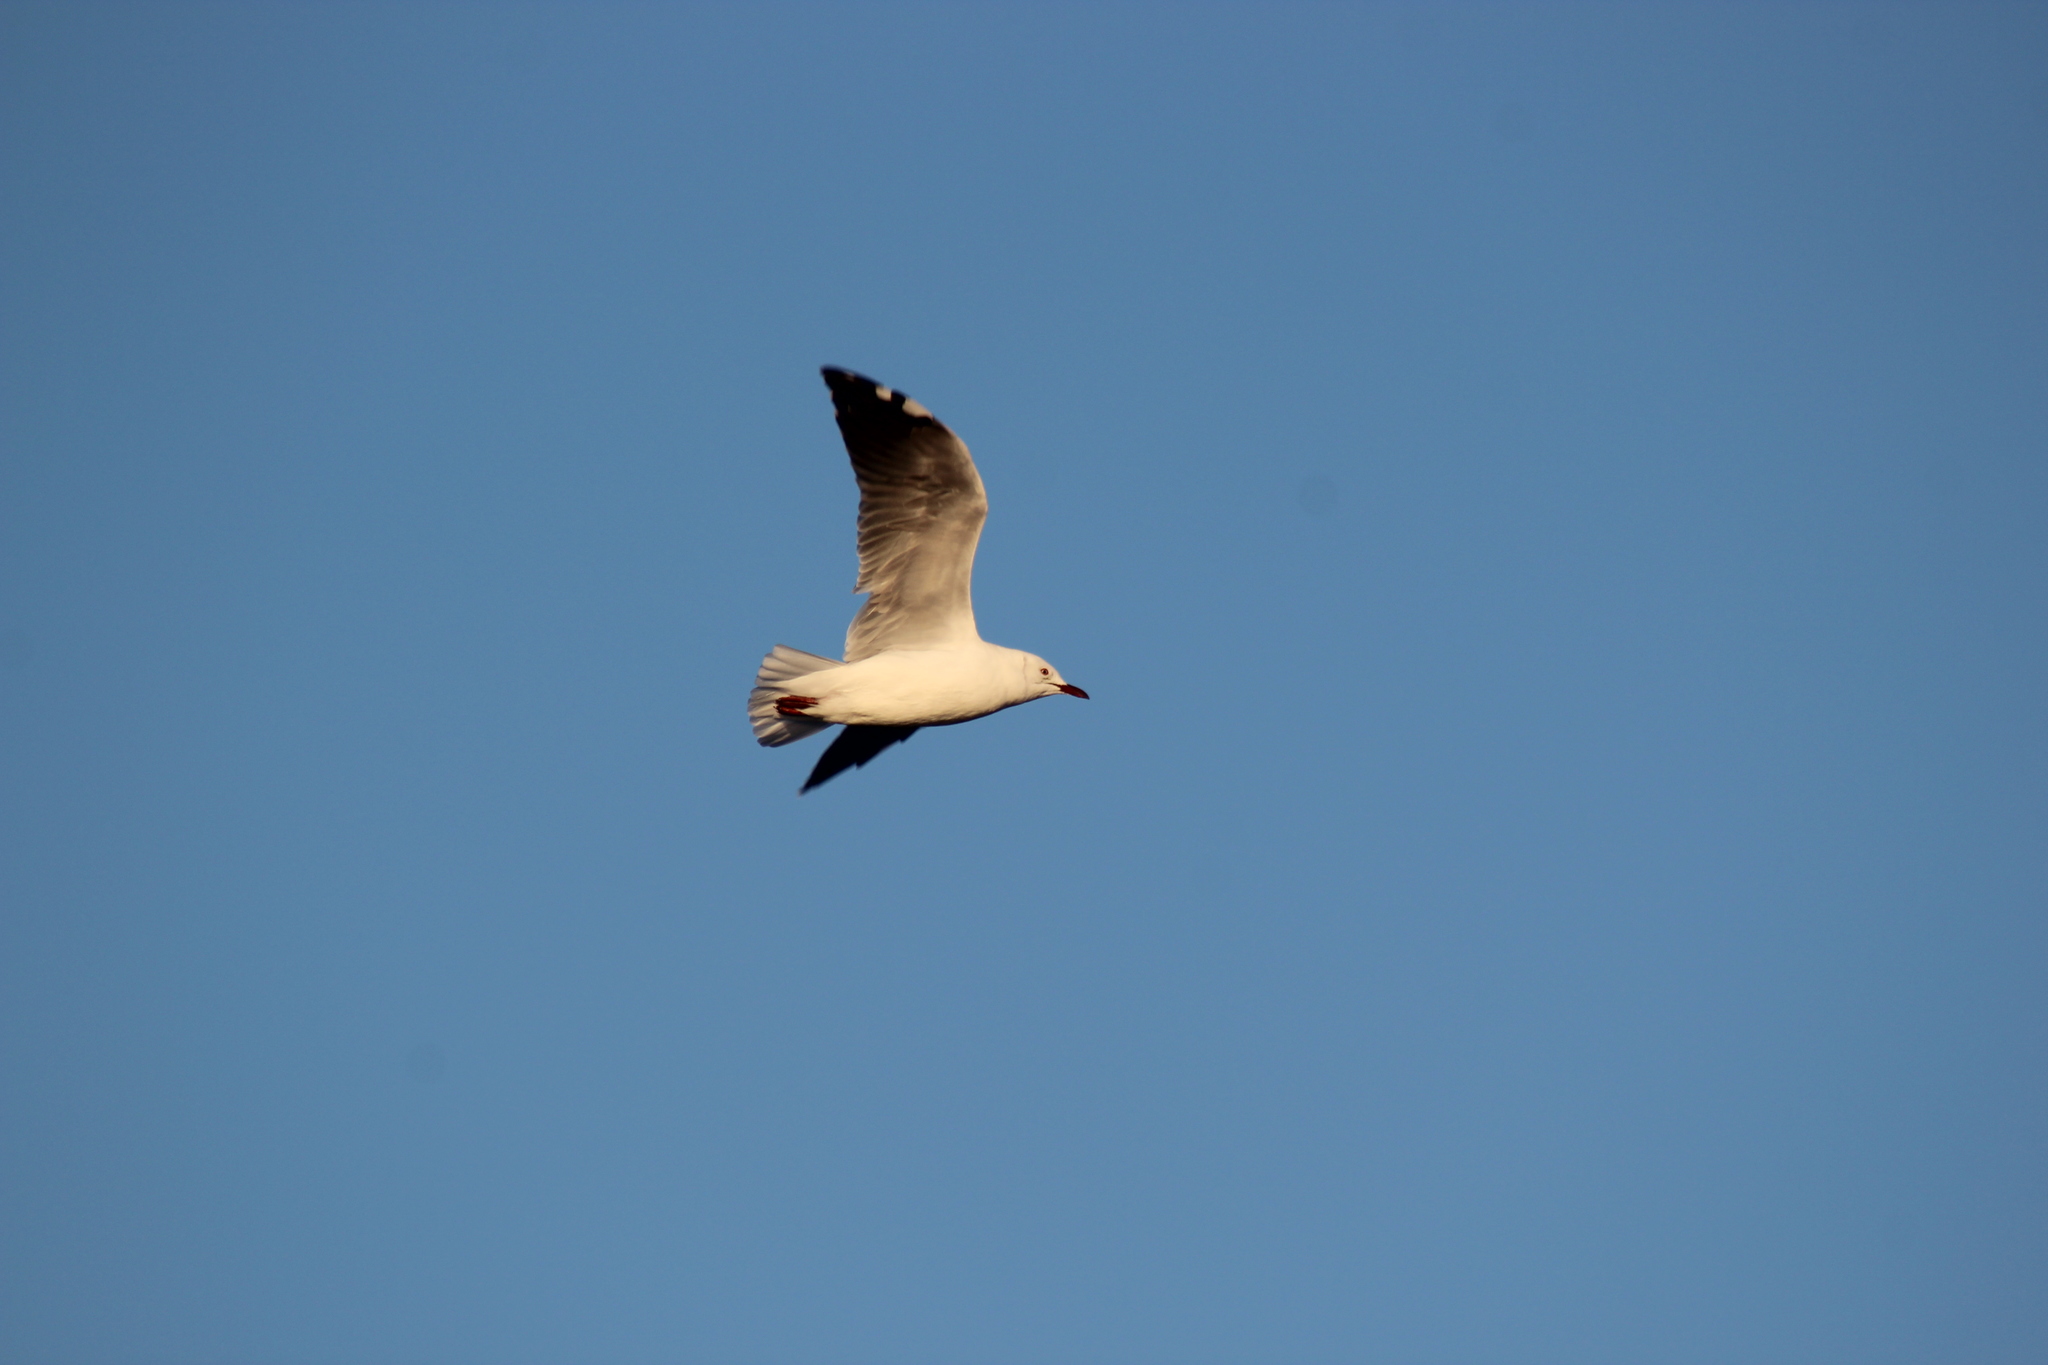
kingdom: Animalia
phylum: Chordata
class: Aves
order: Charadriiformes
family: Laridae
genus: Chroicocephalus
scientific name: Chroicocephalus hartlaubii
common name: Hartlaub's gull
